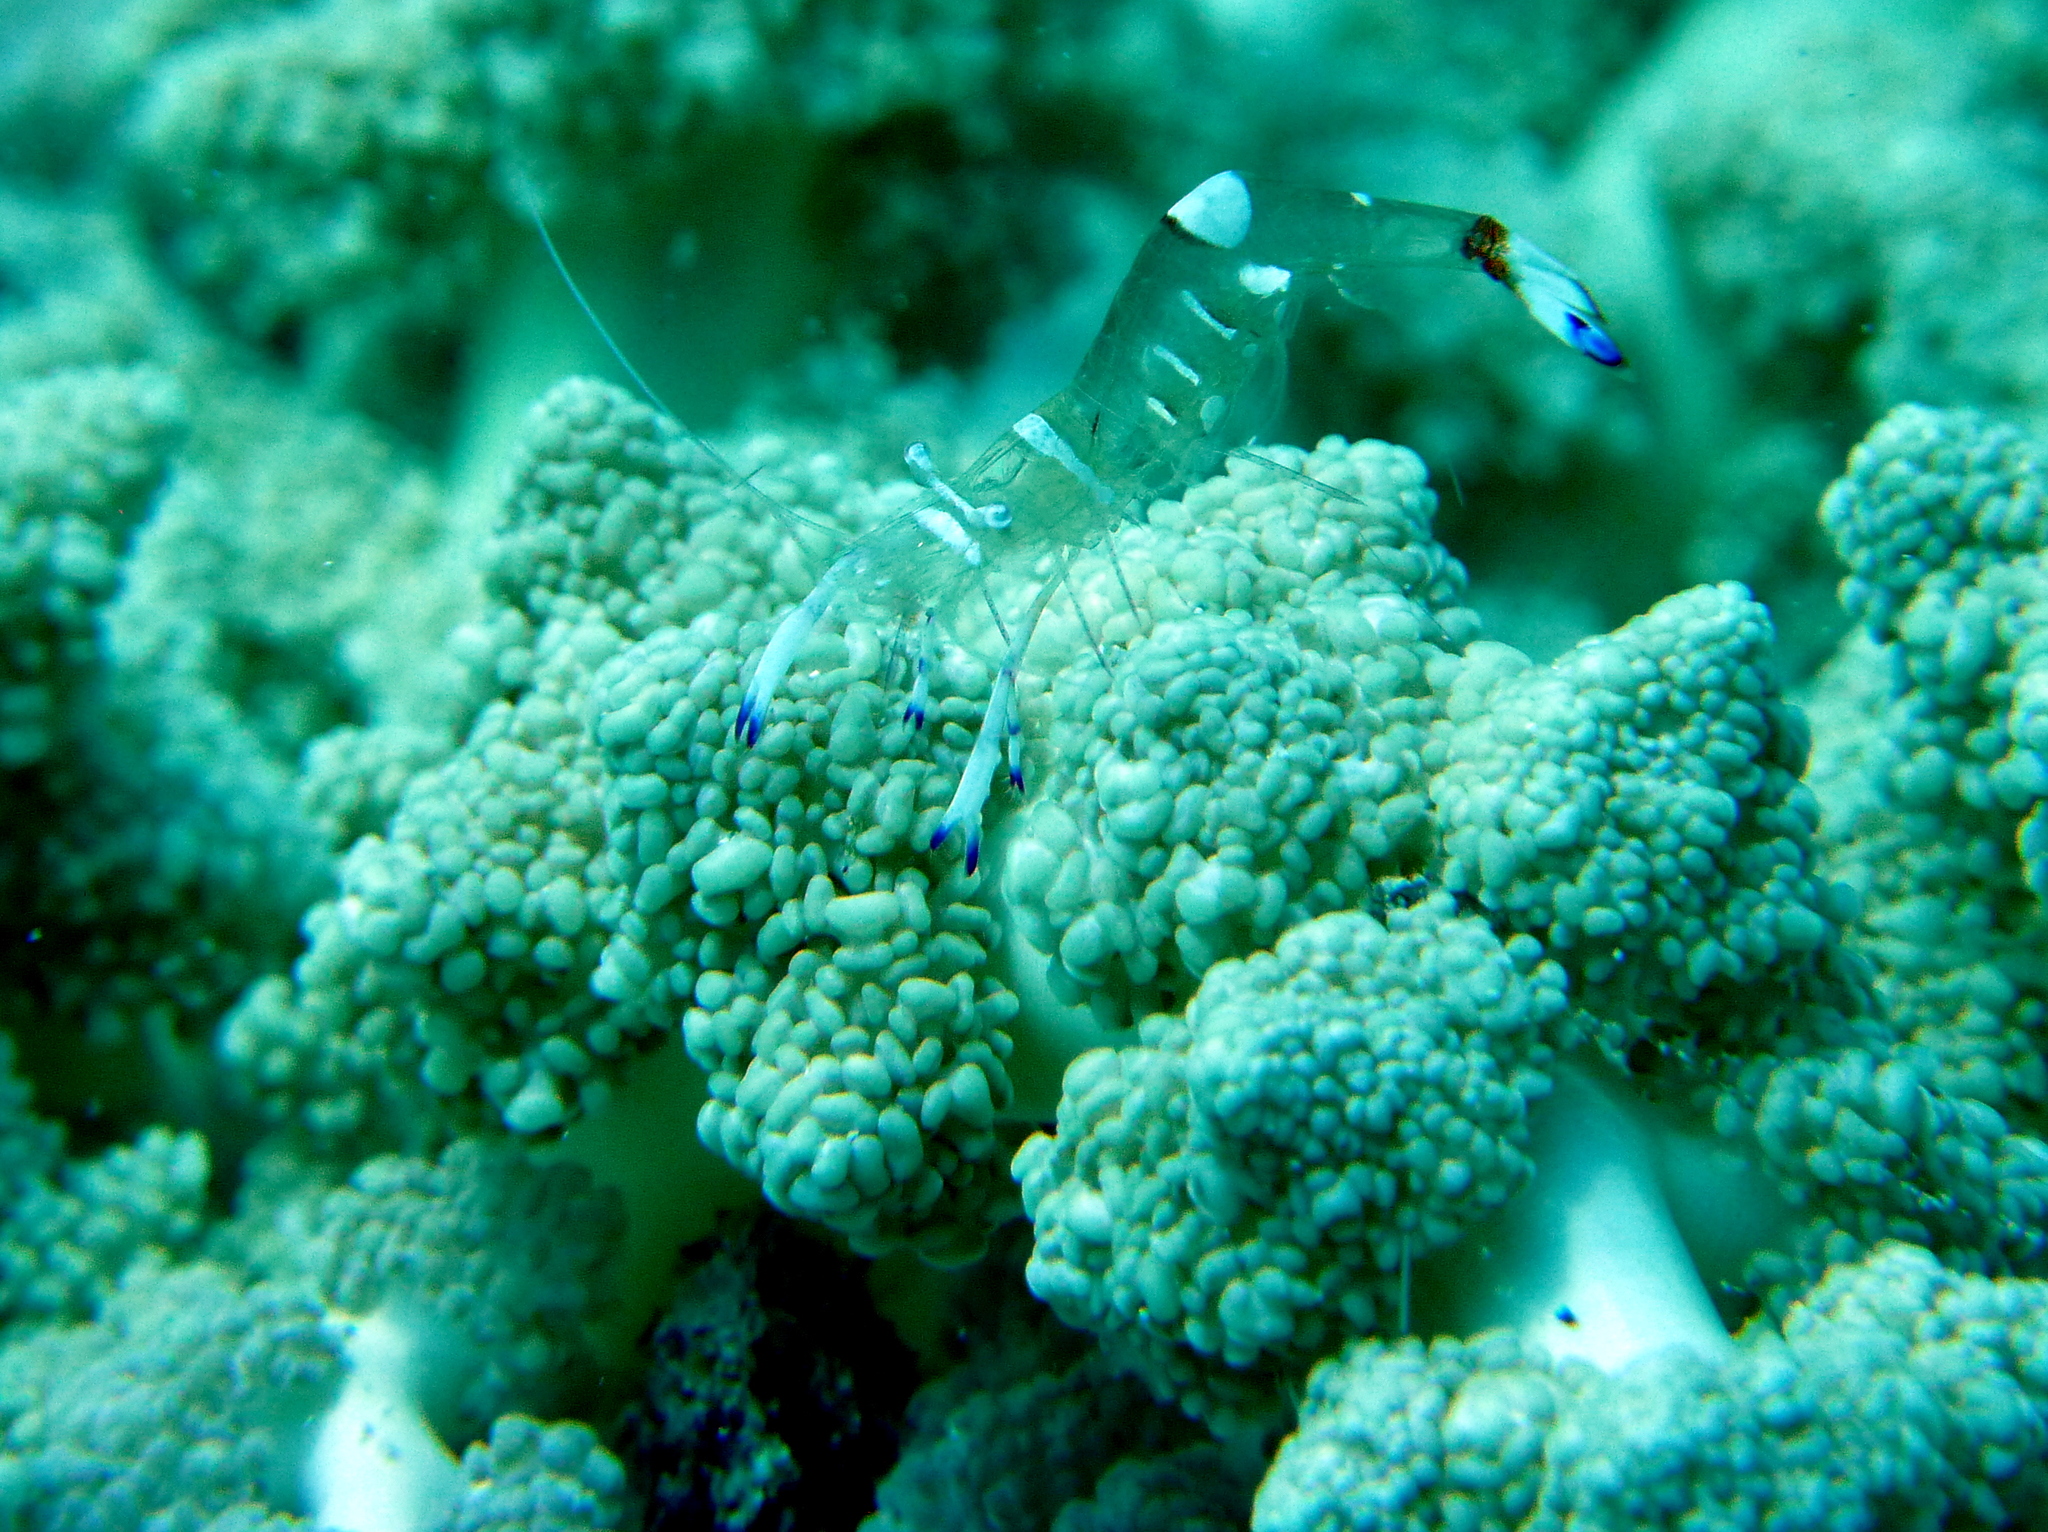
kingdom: Animalia
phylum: Arthropoda
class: Malacostraca
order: Decapoda
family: Palaemonidae
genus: Ancylomenes
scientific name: Ancylomenes magnificus
